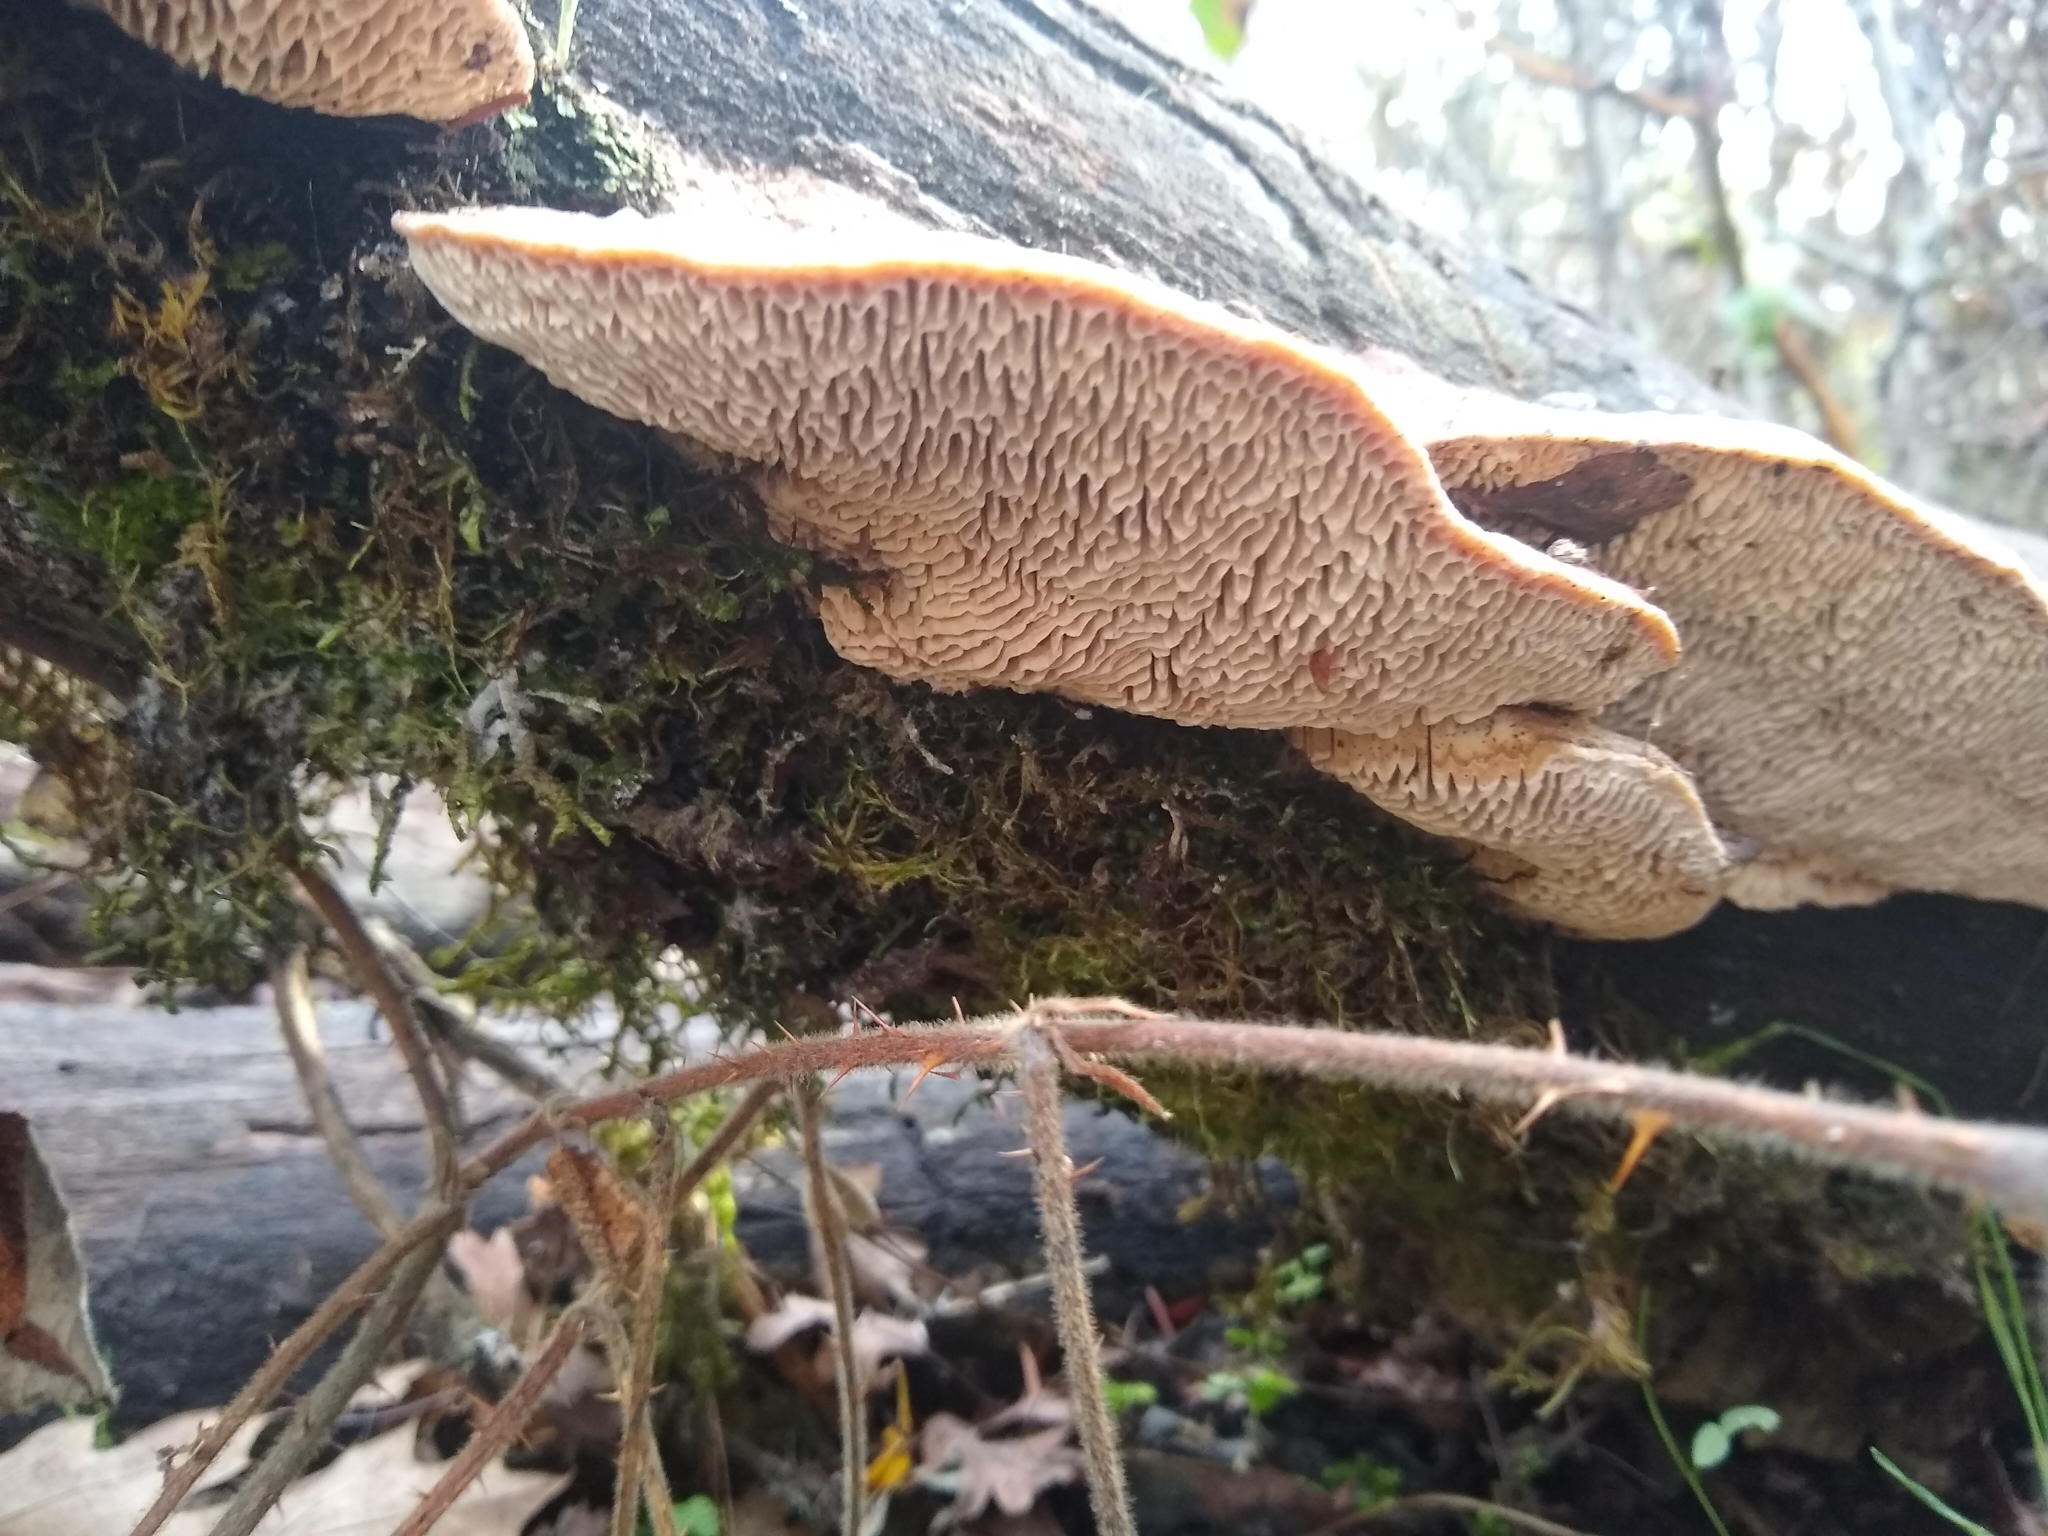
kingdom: Fungi
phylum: Basidiomycota
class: Agaricomycetes
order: Polyporales
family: Fomitopsidaceae
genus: Fomitopsis
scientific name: Fomitopsis
